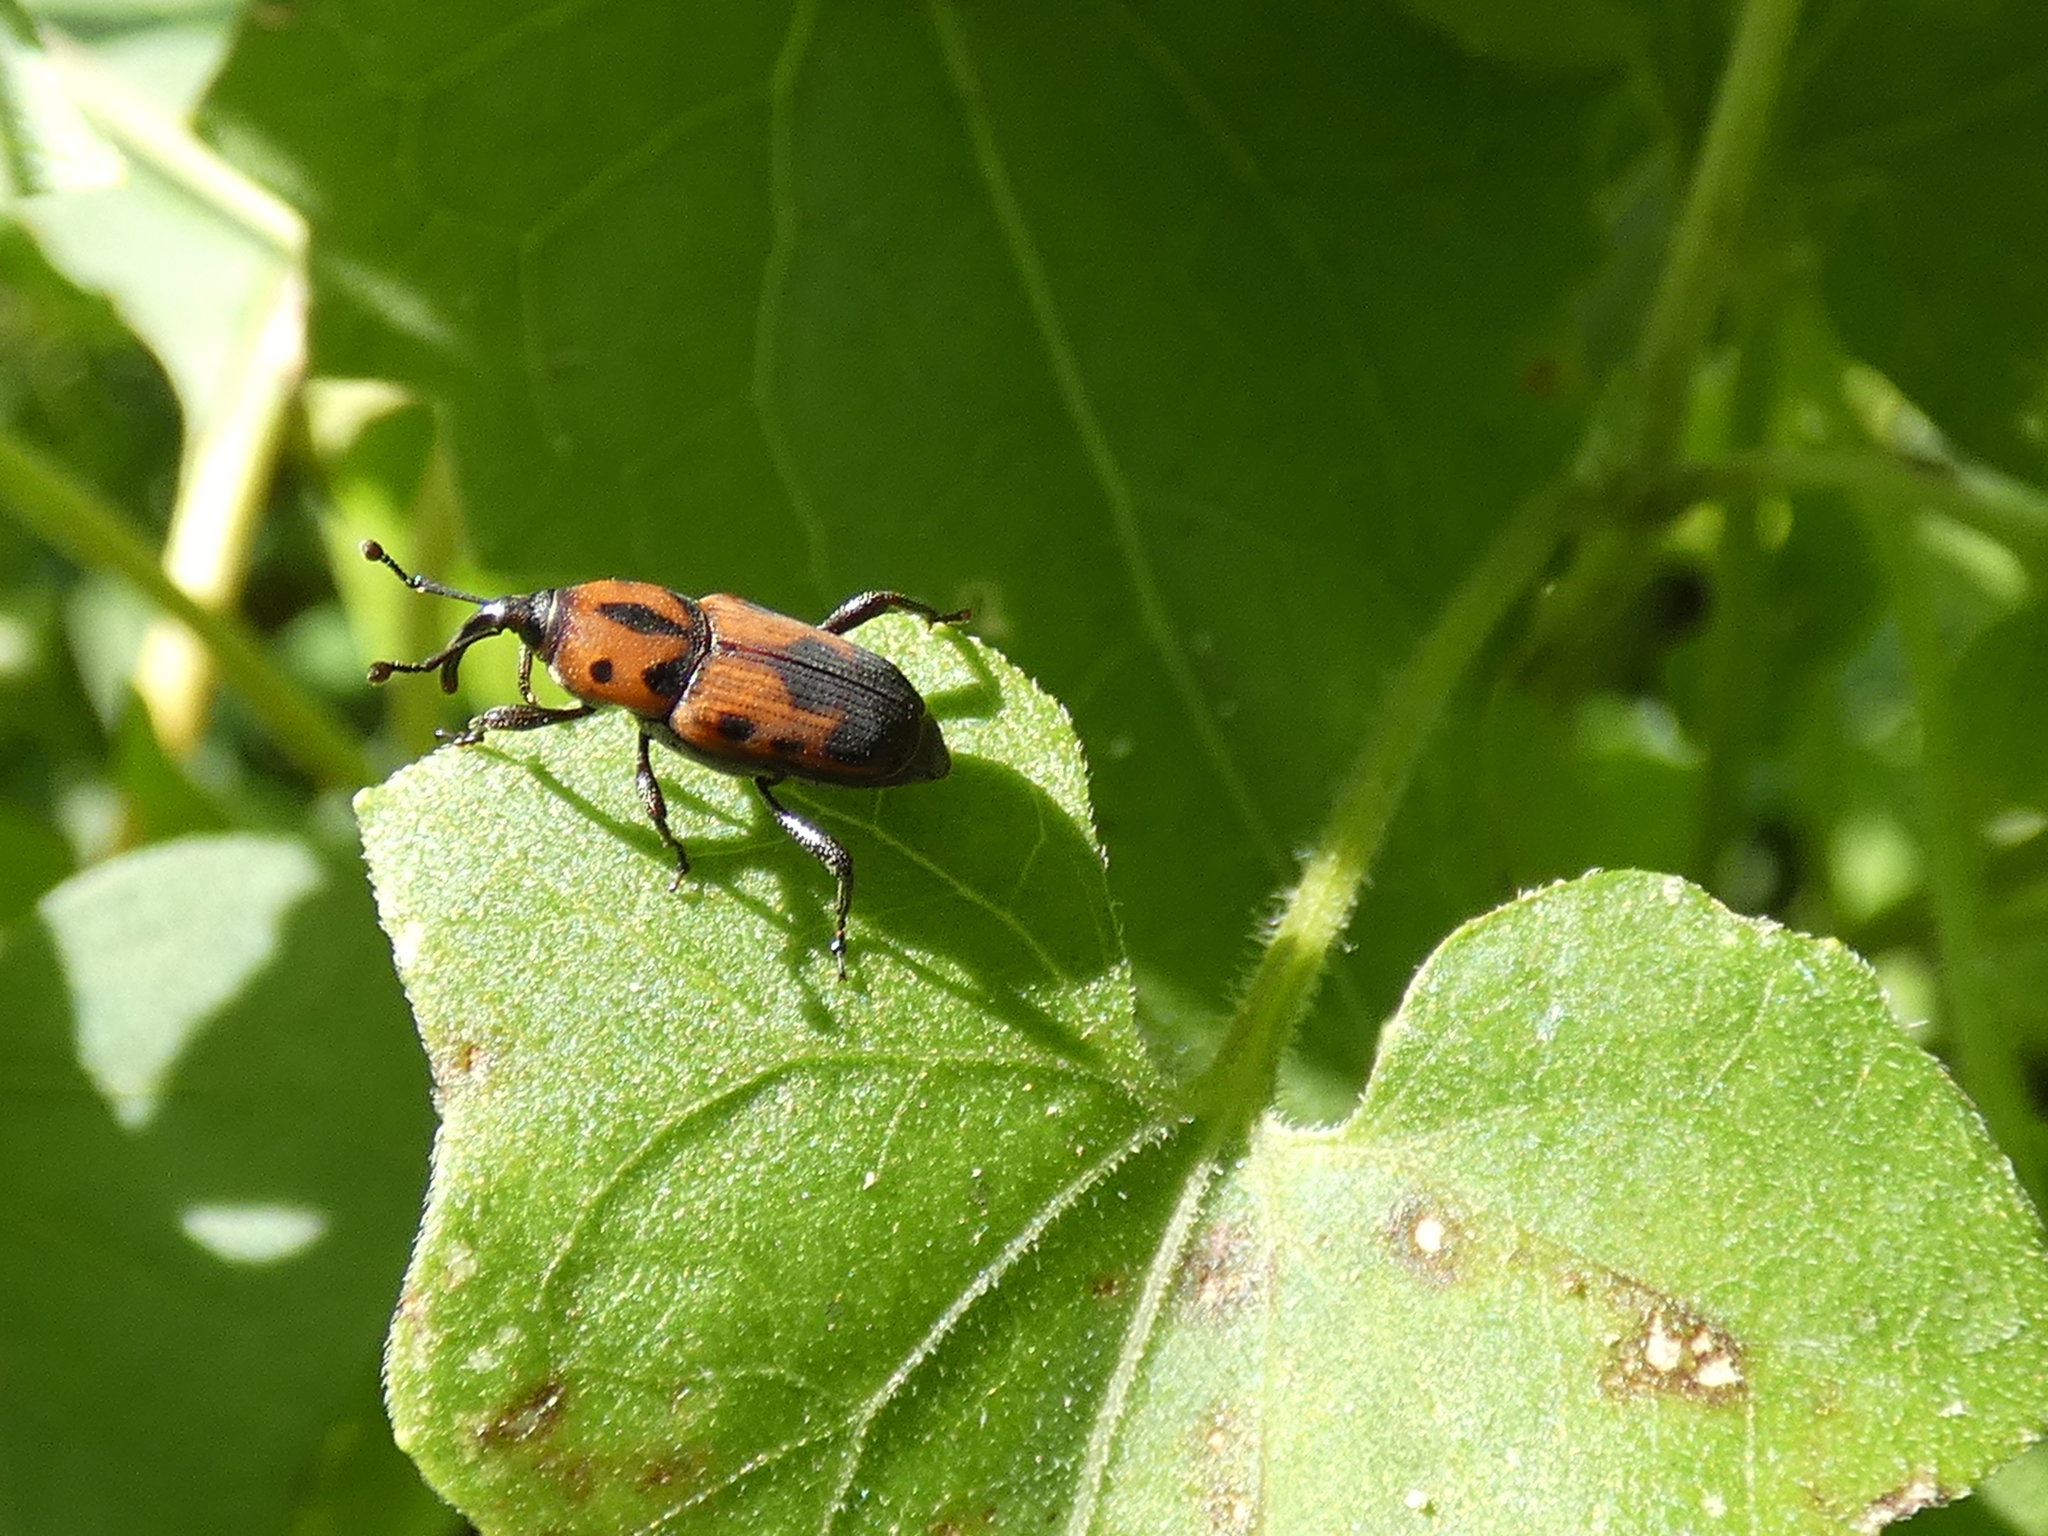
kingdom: Animalia
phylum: Arthropoda
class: Insecta
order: Coleoptera
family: Dryophthoridae
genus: Rhodobaenus
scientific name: Rhodobaenus quinquepunctatus
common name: Cocklebur weevil
